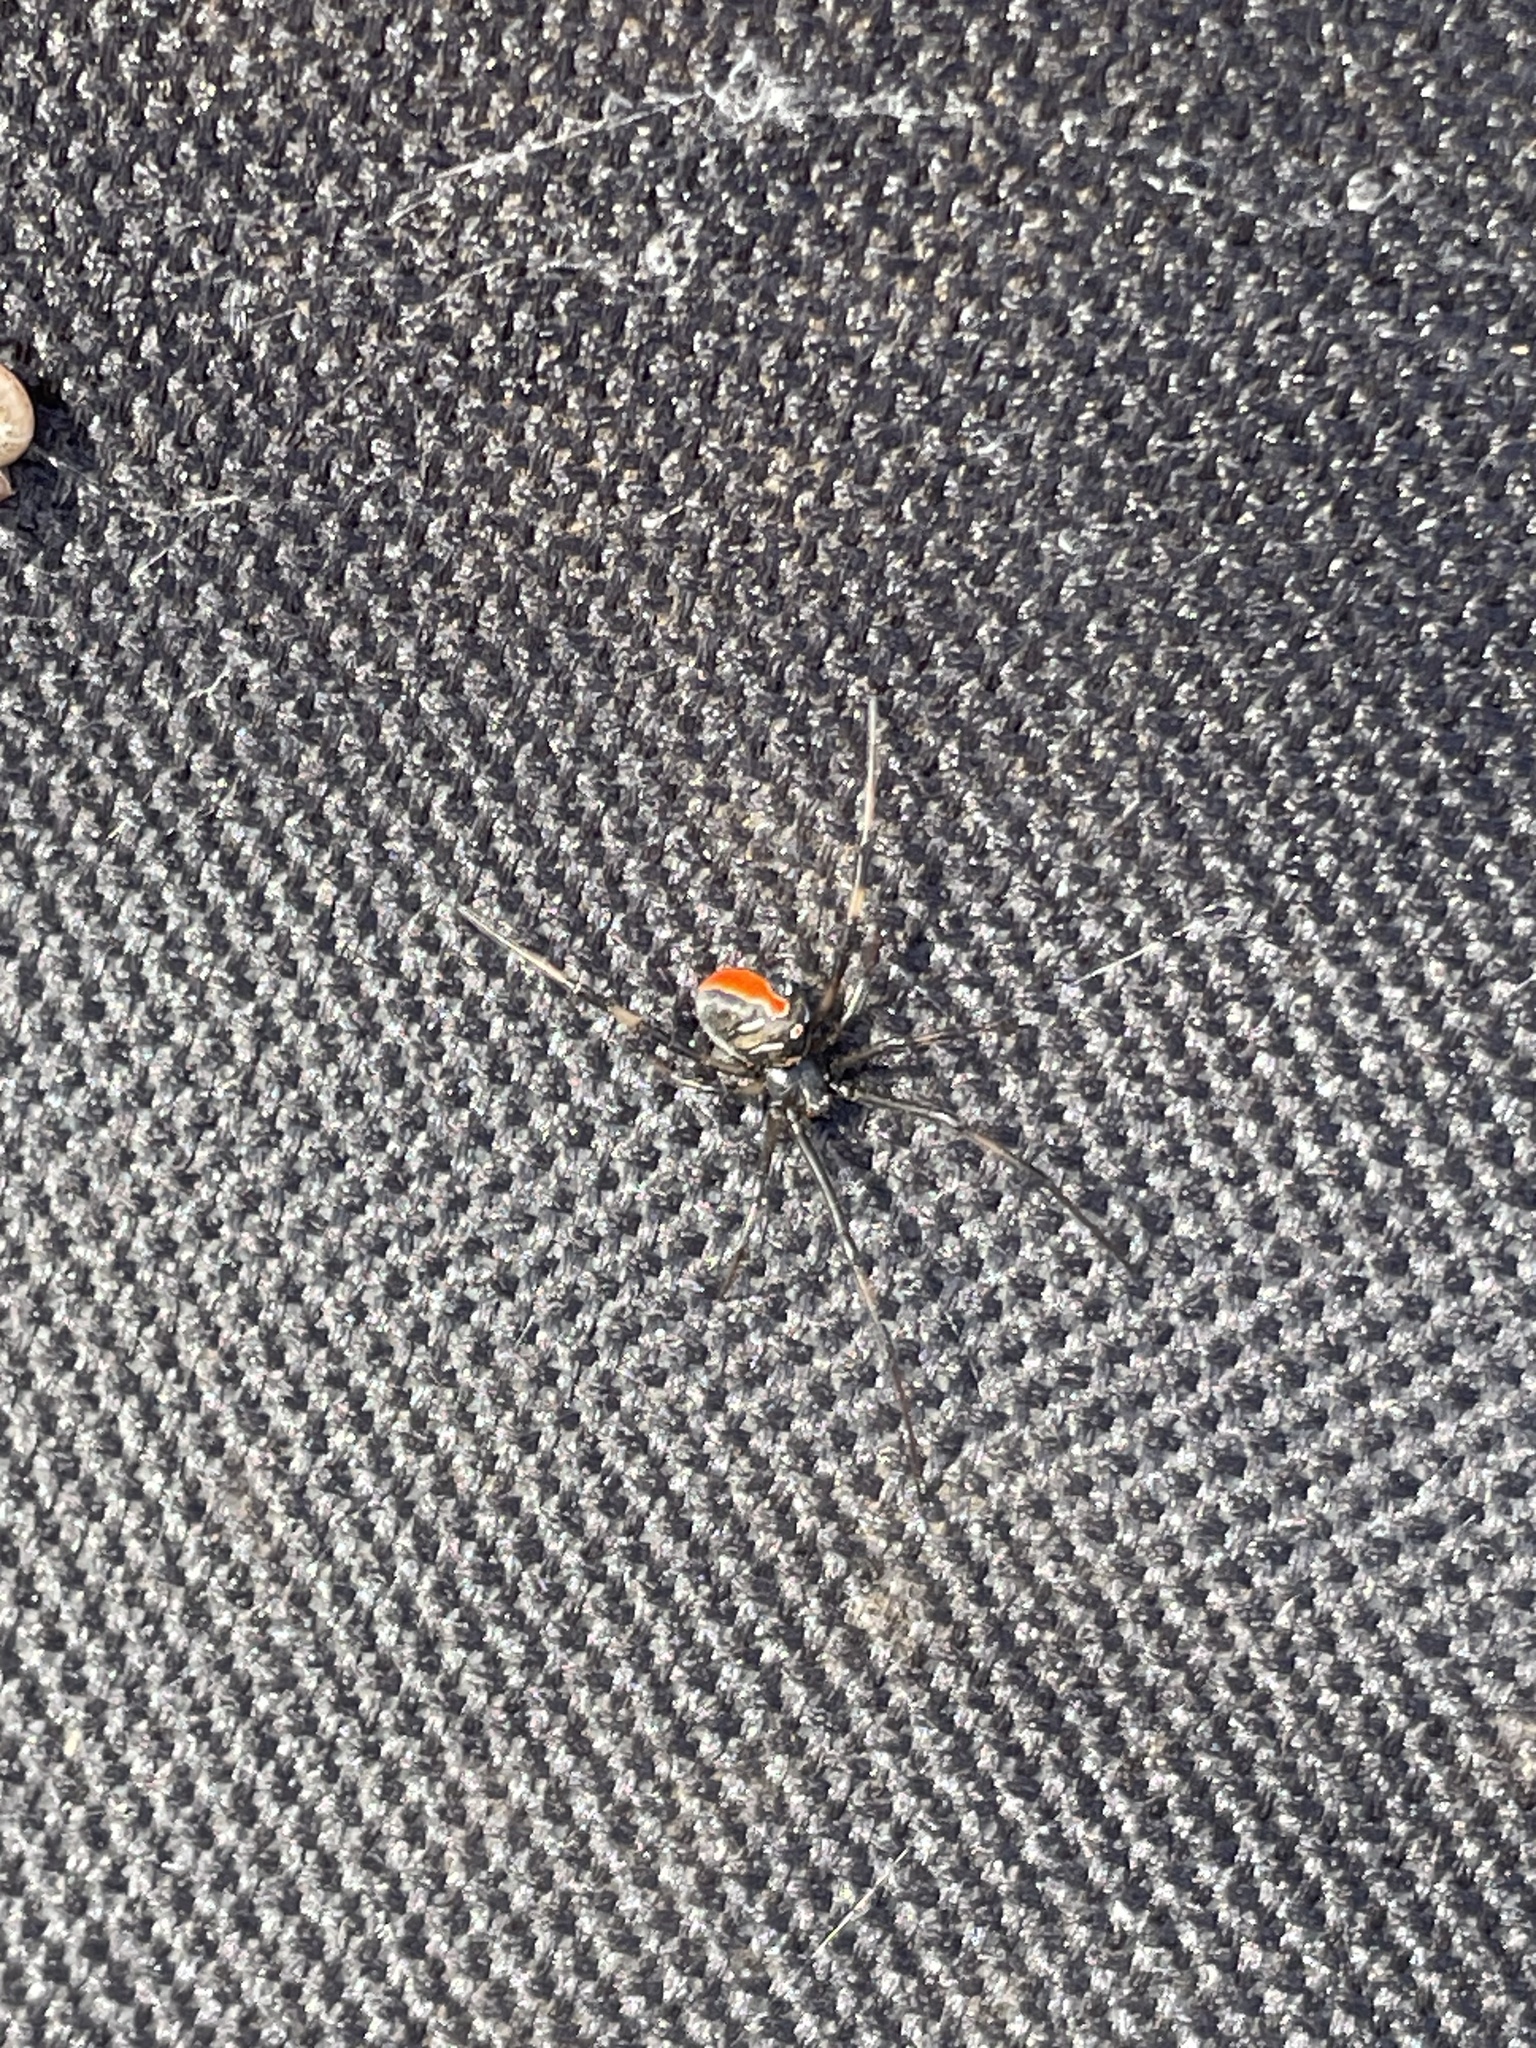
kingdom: Animalia
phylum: Arthropoda
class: Arachnida
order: Araneae
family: Theridiidae
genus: Latrodectus
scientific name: Latrodectus hasselti
